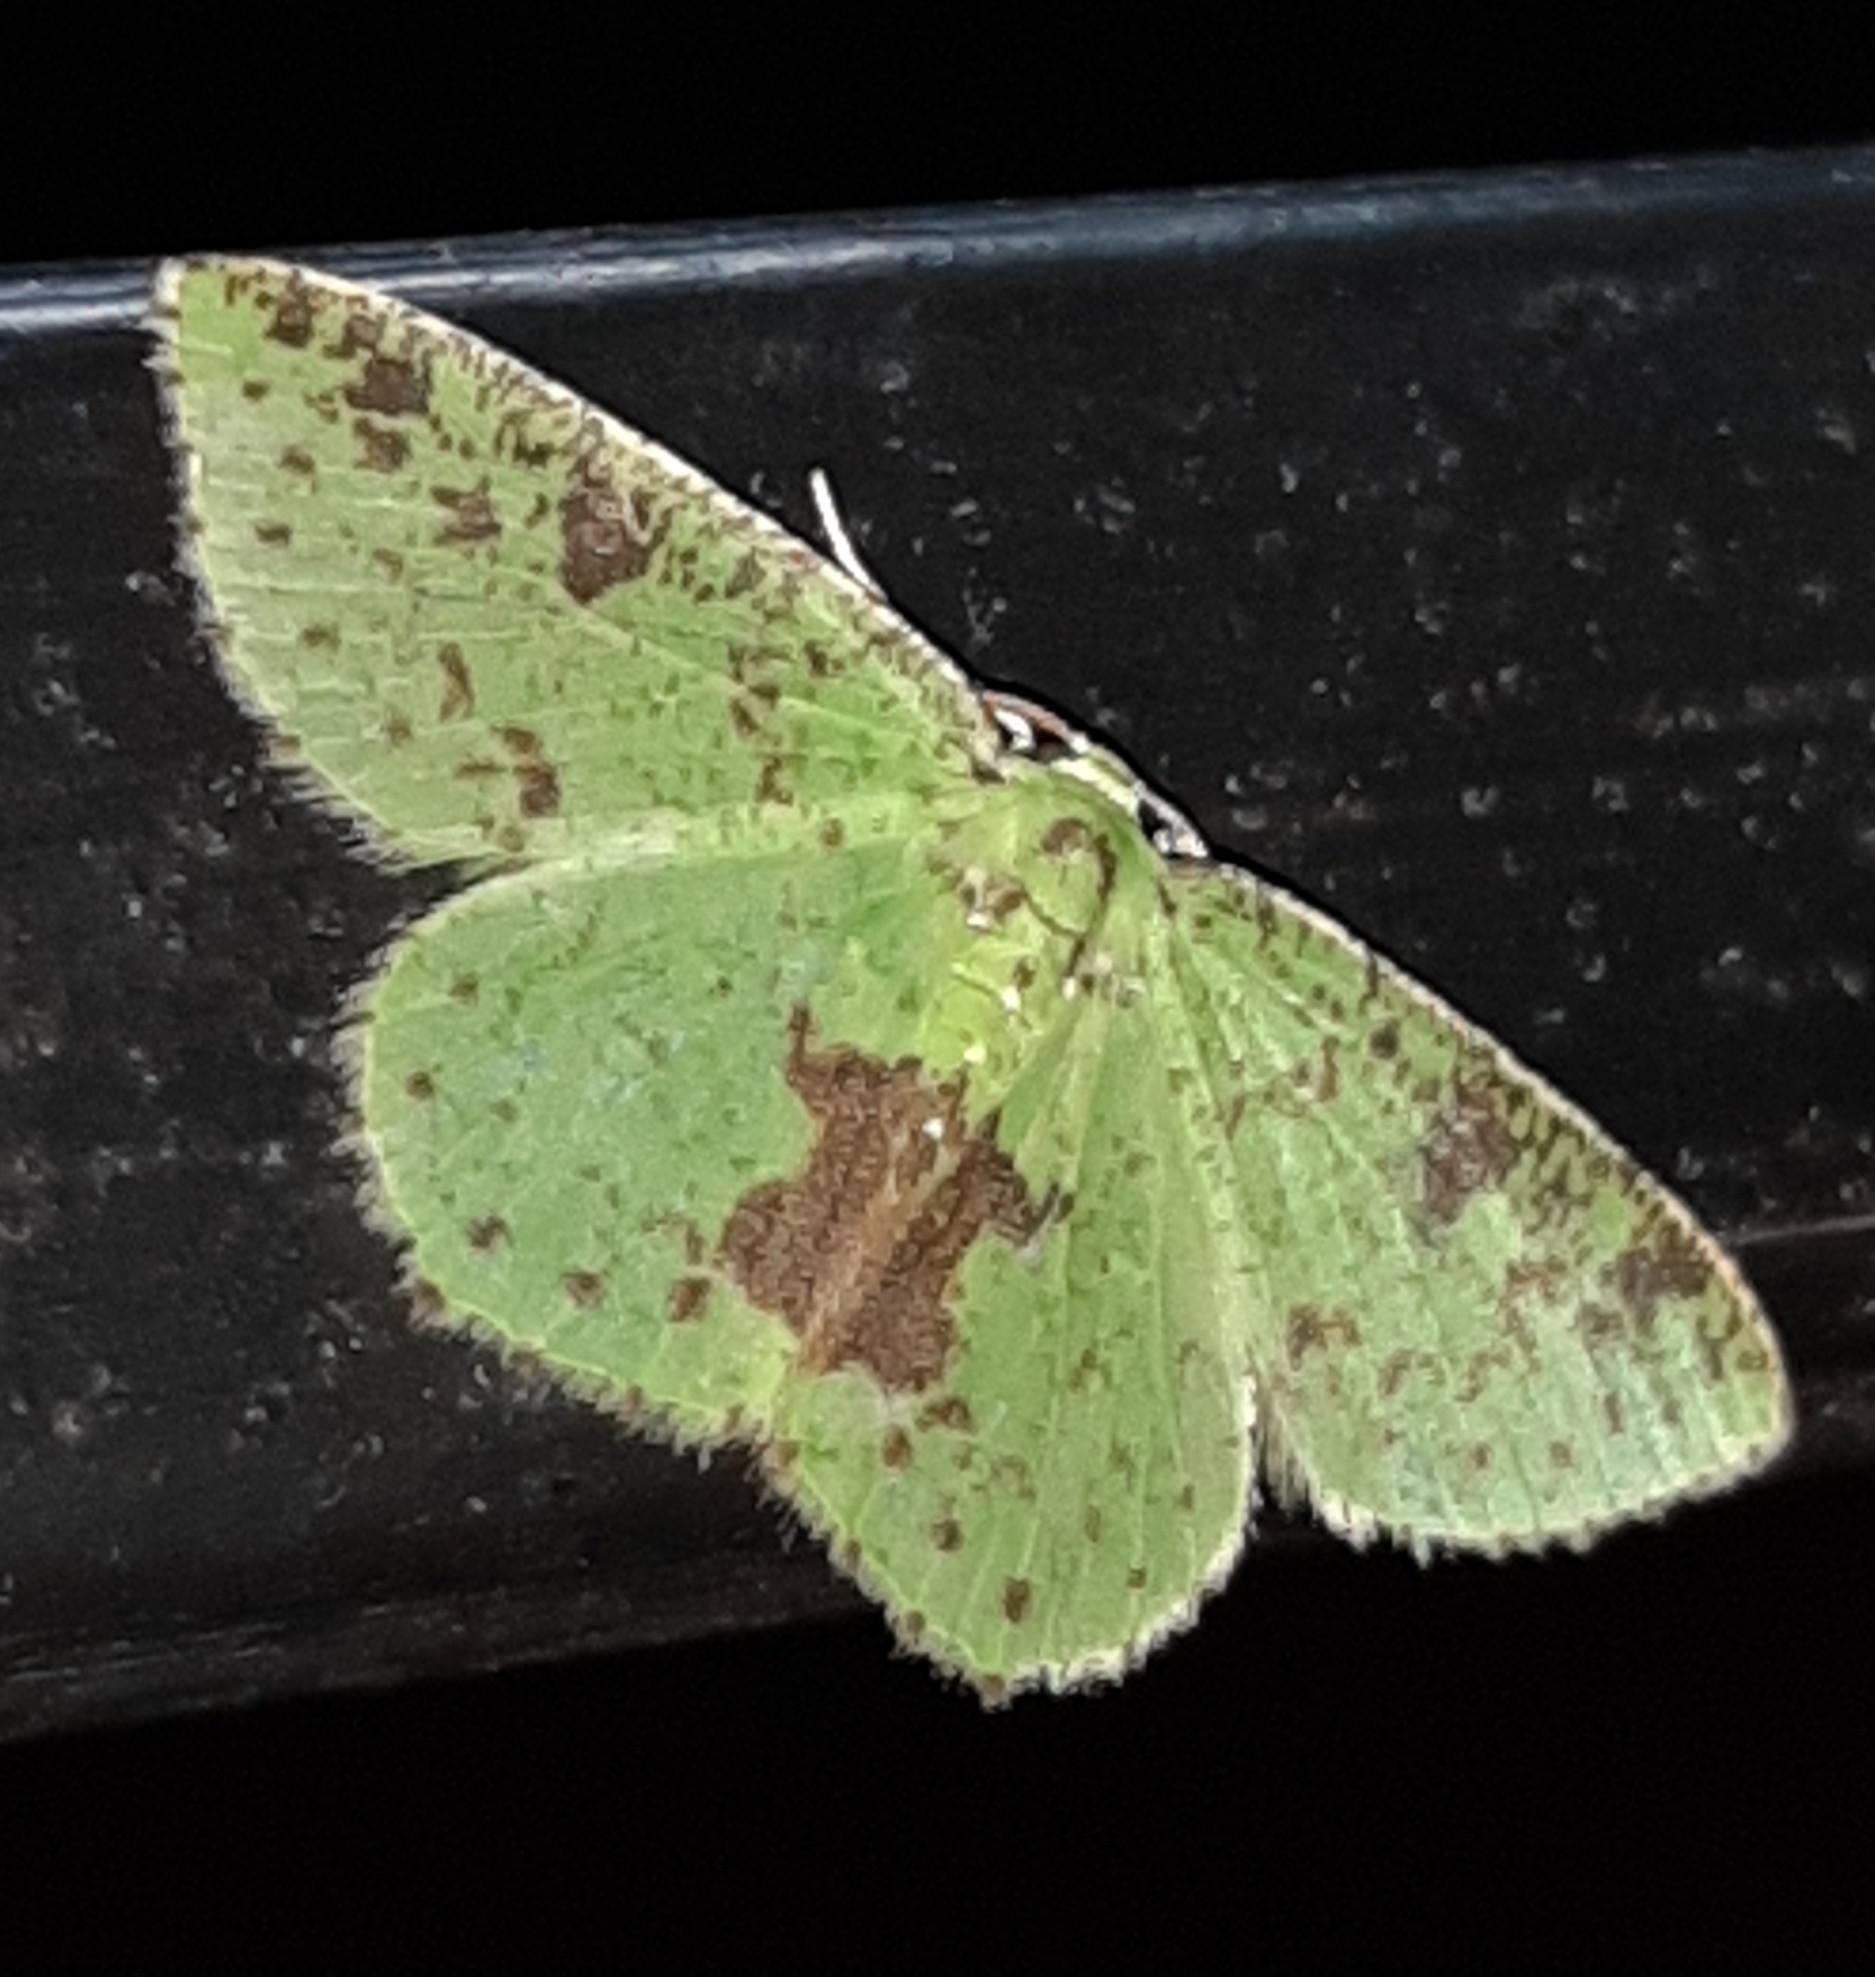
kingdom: Animalia
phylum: Arthropoda
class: Insecta
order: Lepidoptera
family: Geometridae
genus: Nemoria
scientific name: Nemoria eugeniae
